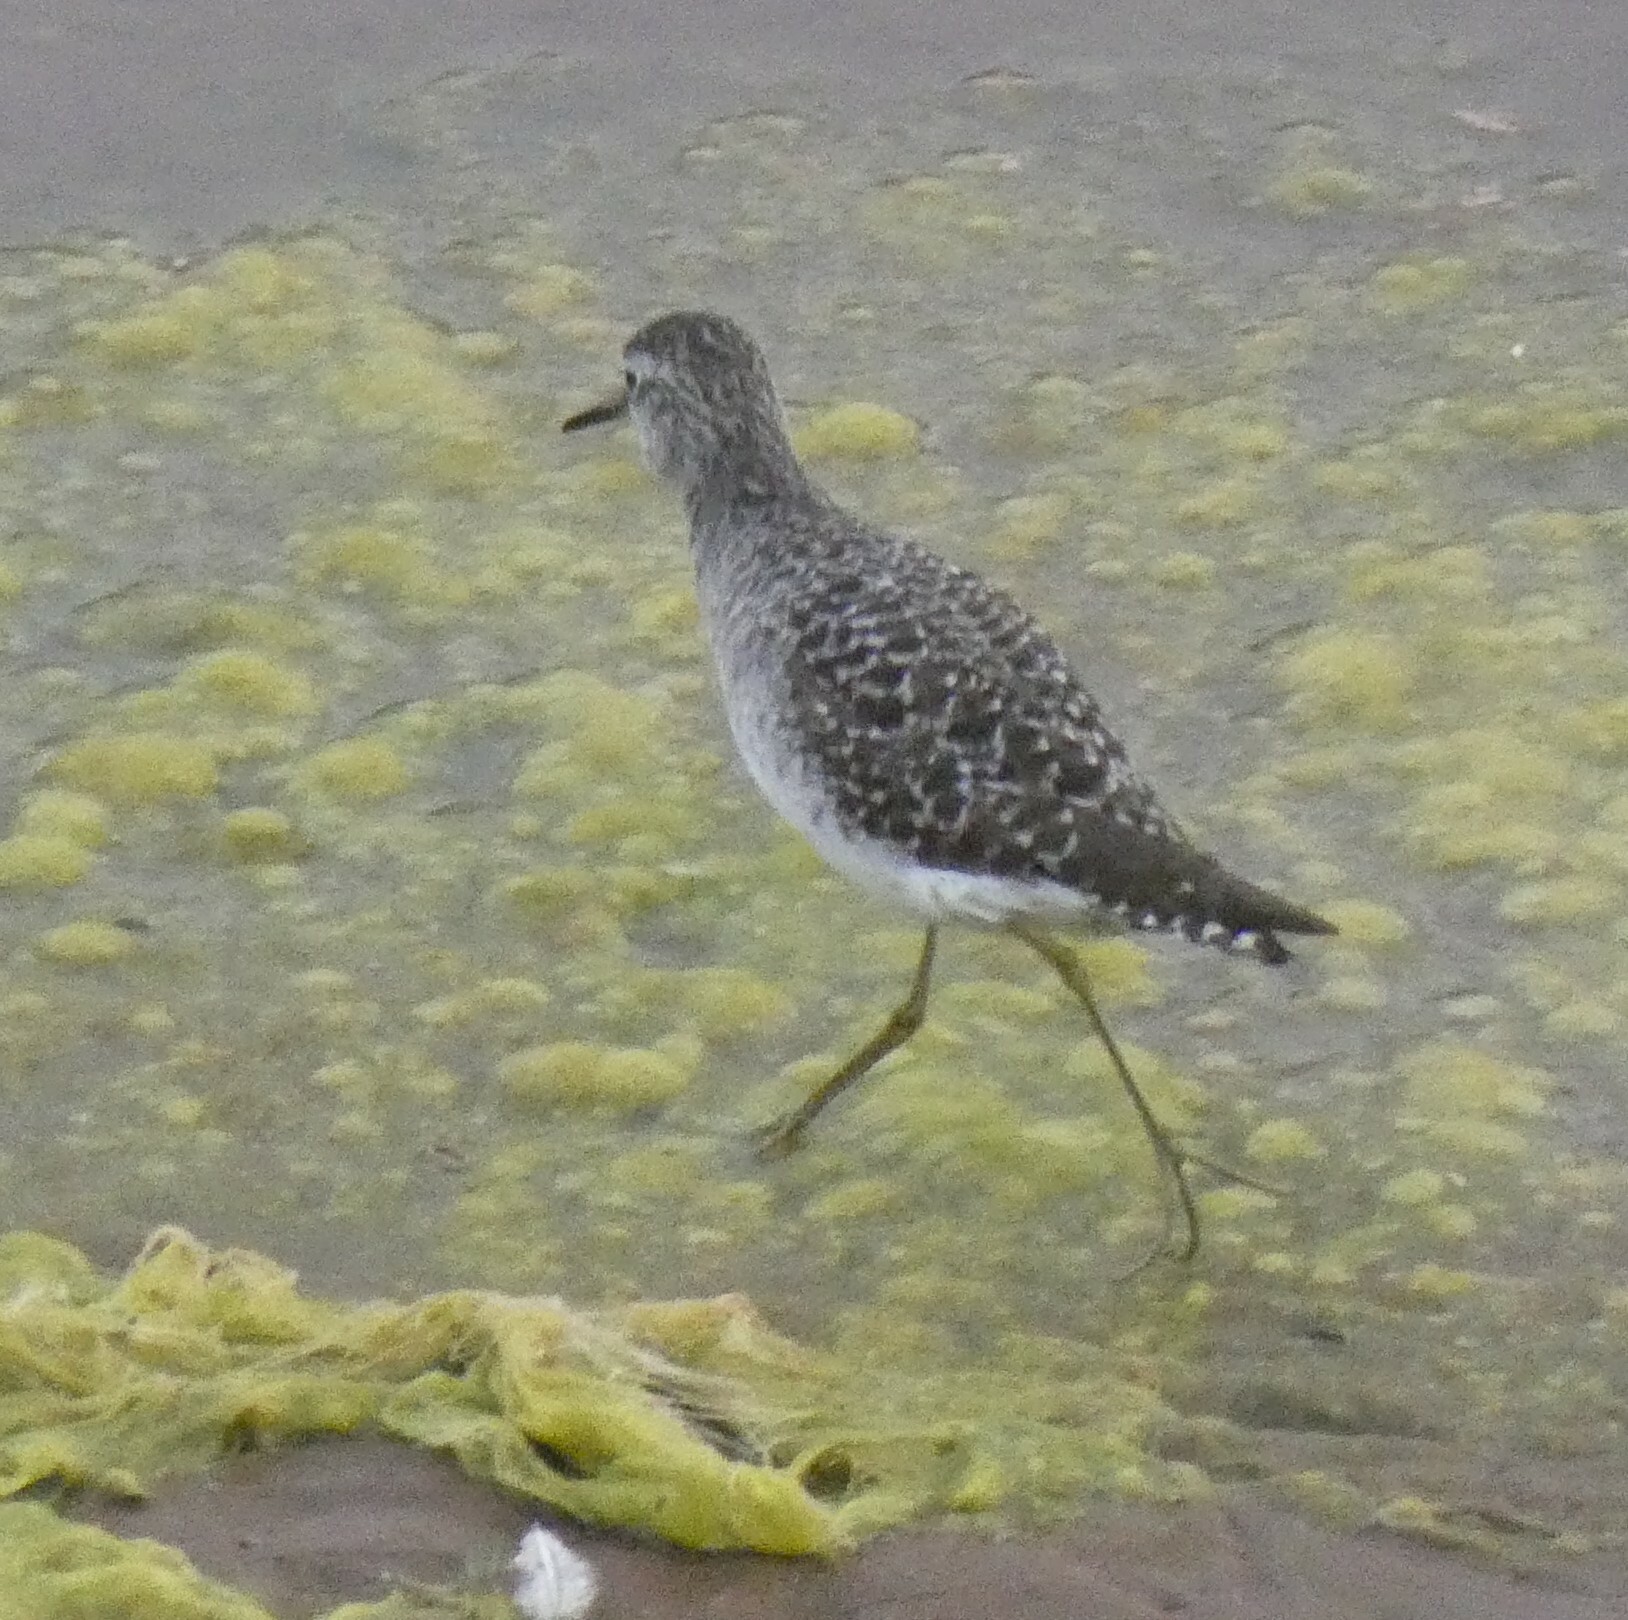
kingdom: Animalia
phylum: Chordata
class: Aves
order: Charadriiformes
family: Scolopacidae
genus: Tringa
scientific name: Tringa glareola
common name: Wood sandpiper
